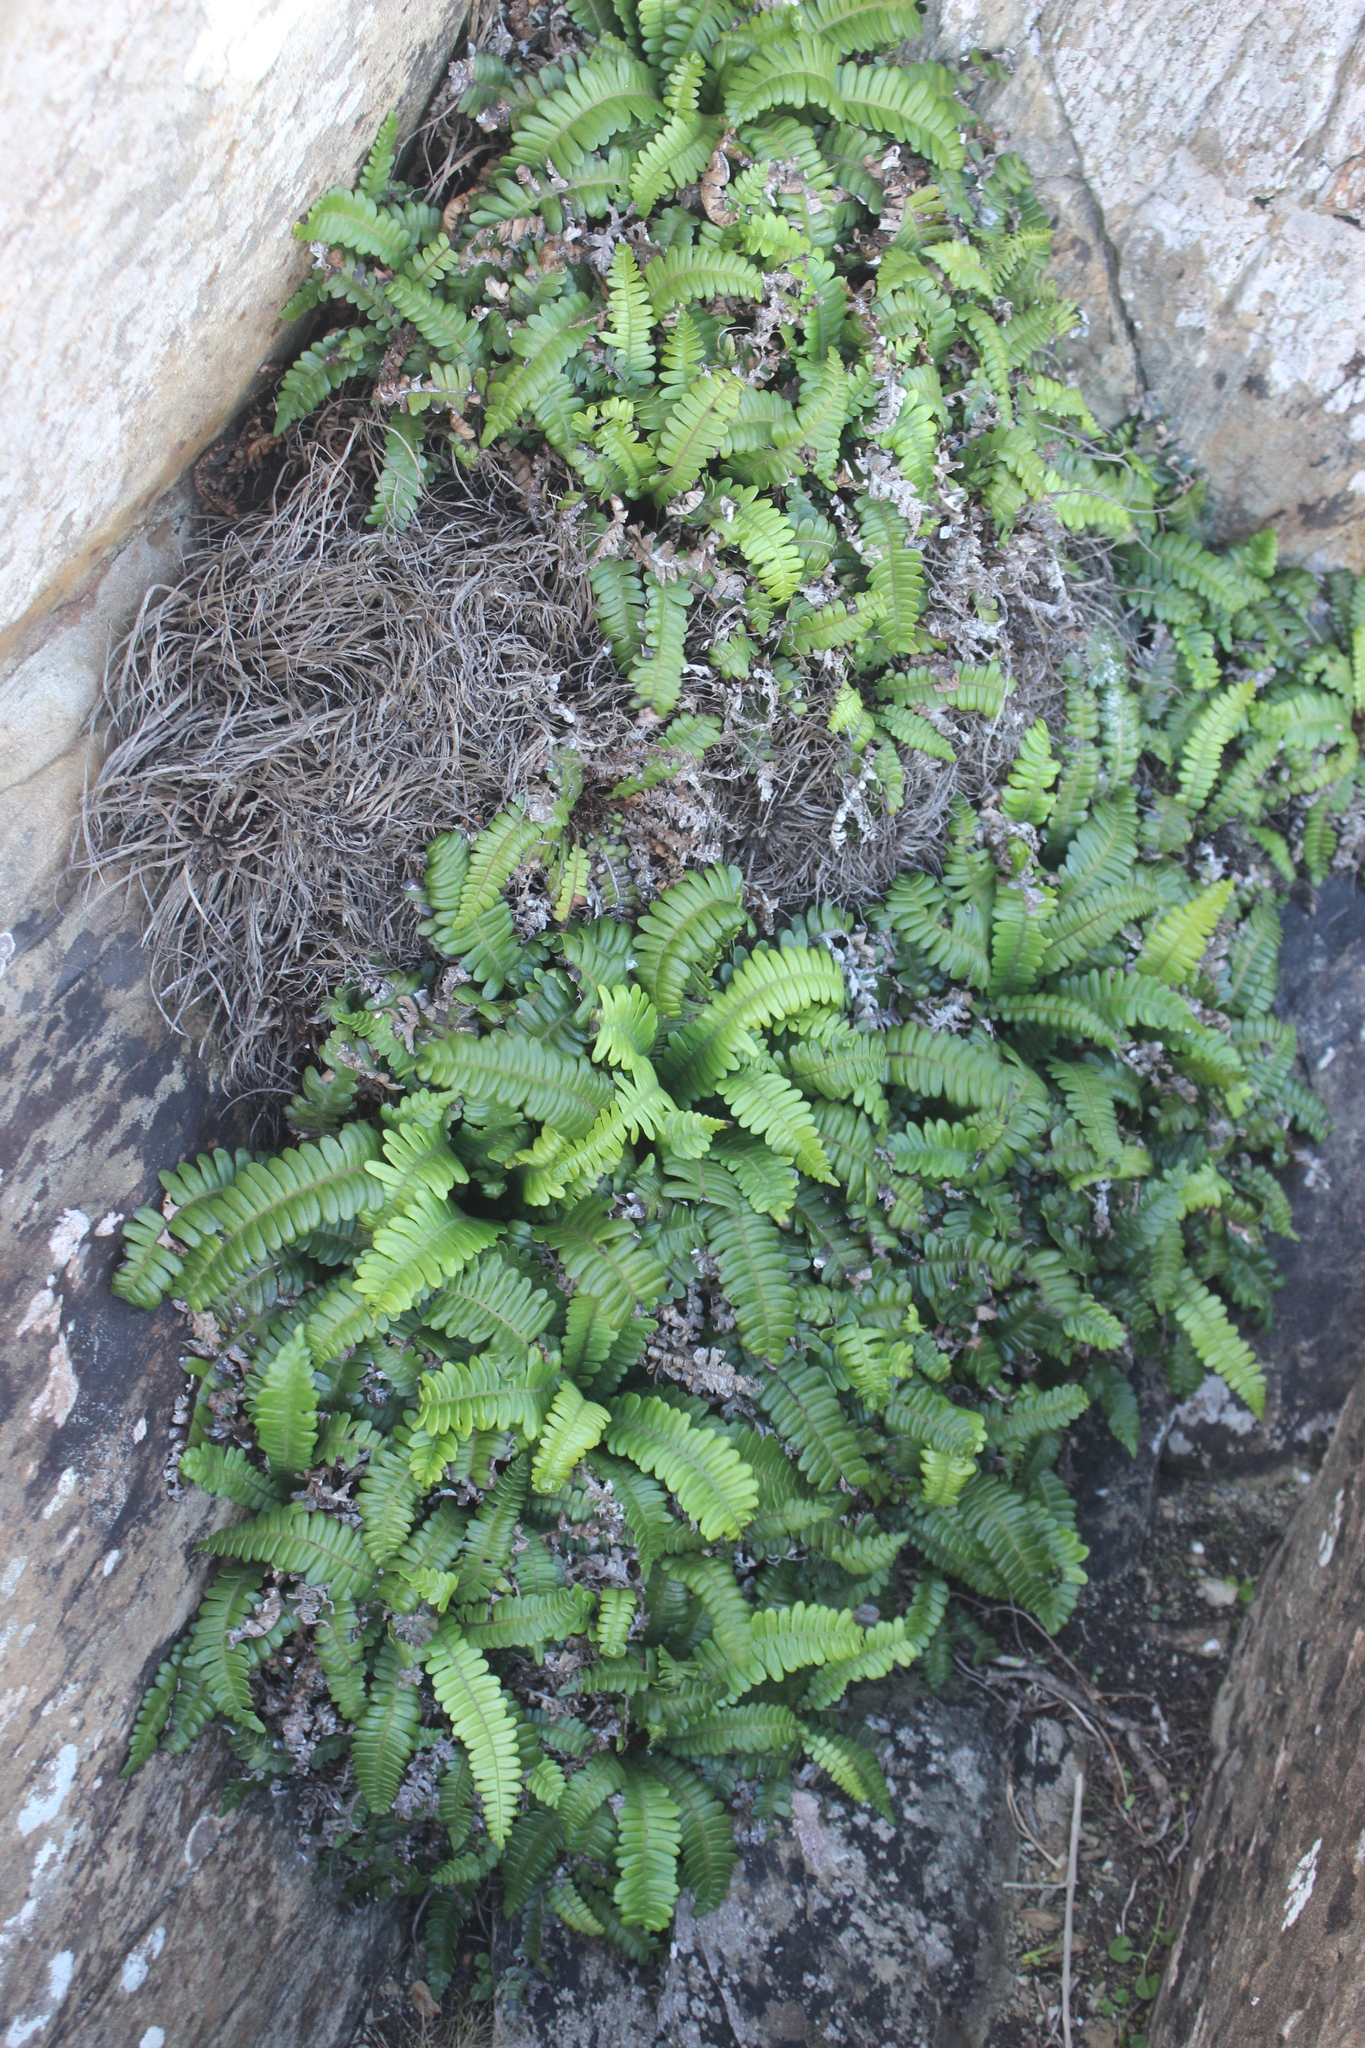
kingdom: Plantae
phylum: Tracheophyta
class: Polypodiopsida
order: Polypodiales
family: Blechnaceae
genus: Austroblechnum
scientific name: Austroblechnum durum
